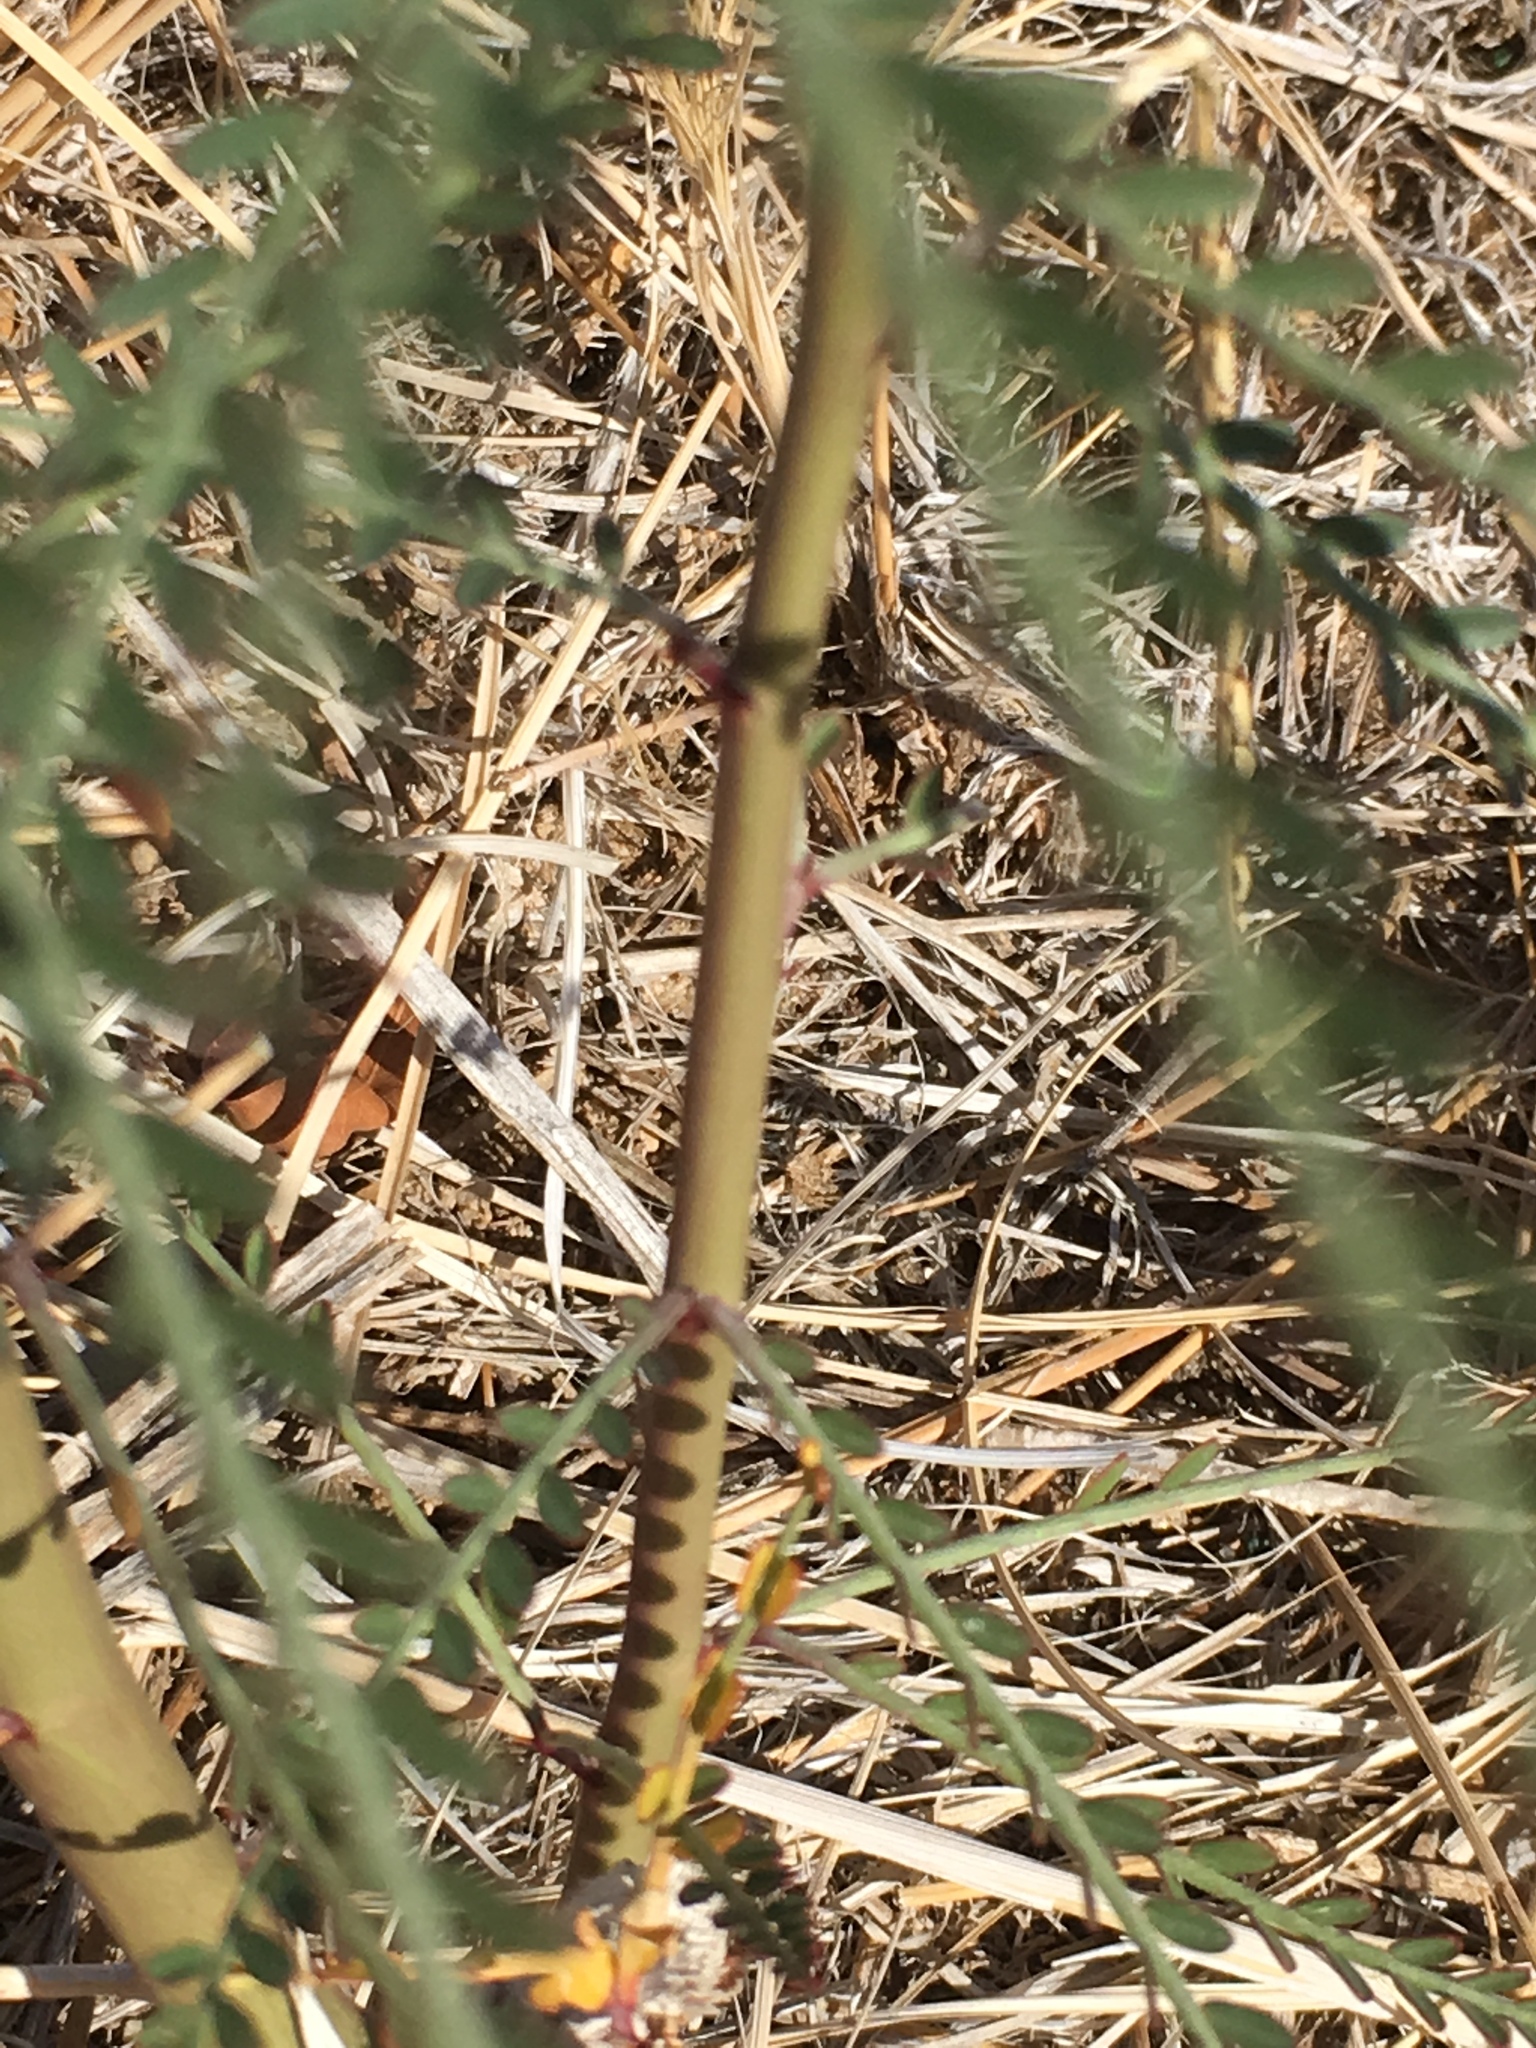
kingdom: Plantae
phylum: Tracheophyta
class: Magnoliopsida
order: Fabales
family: Fabaceae
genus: Parkinsonia
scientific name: Parkinsonia aculeata
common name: Jerusalem thorn
